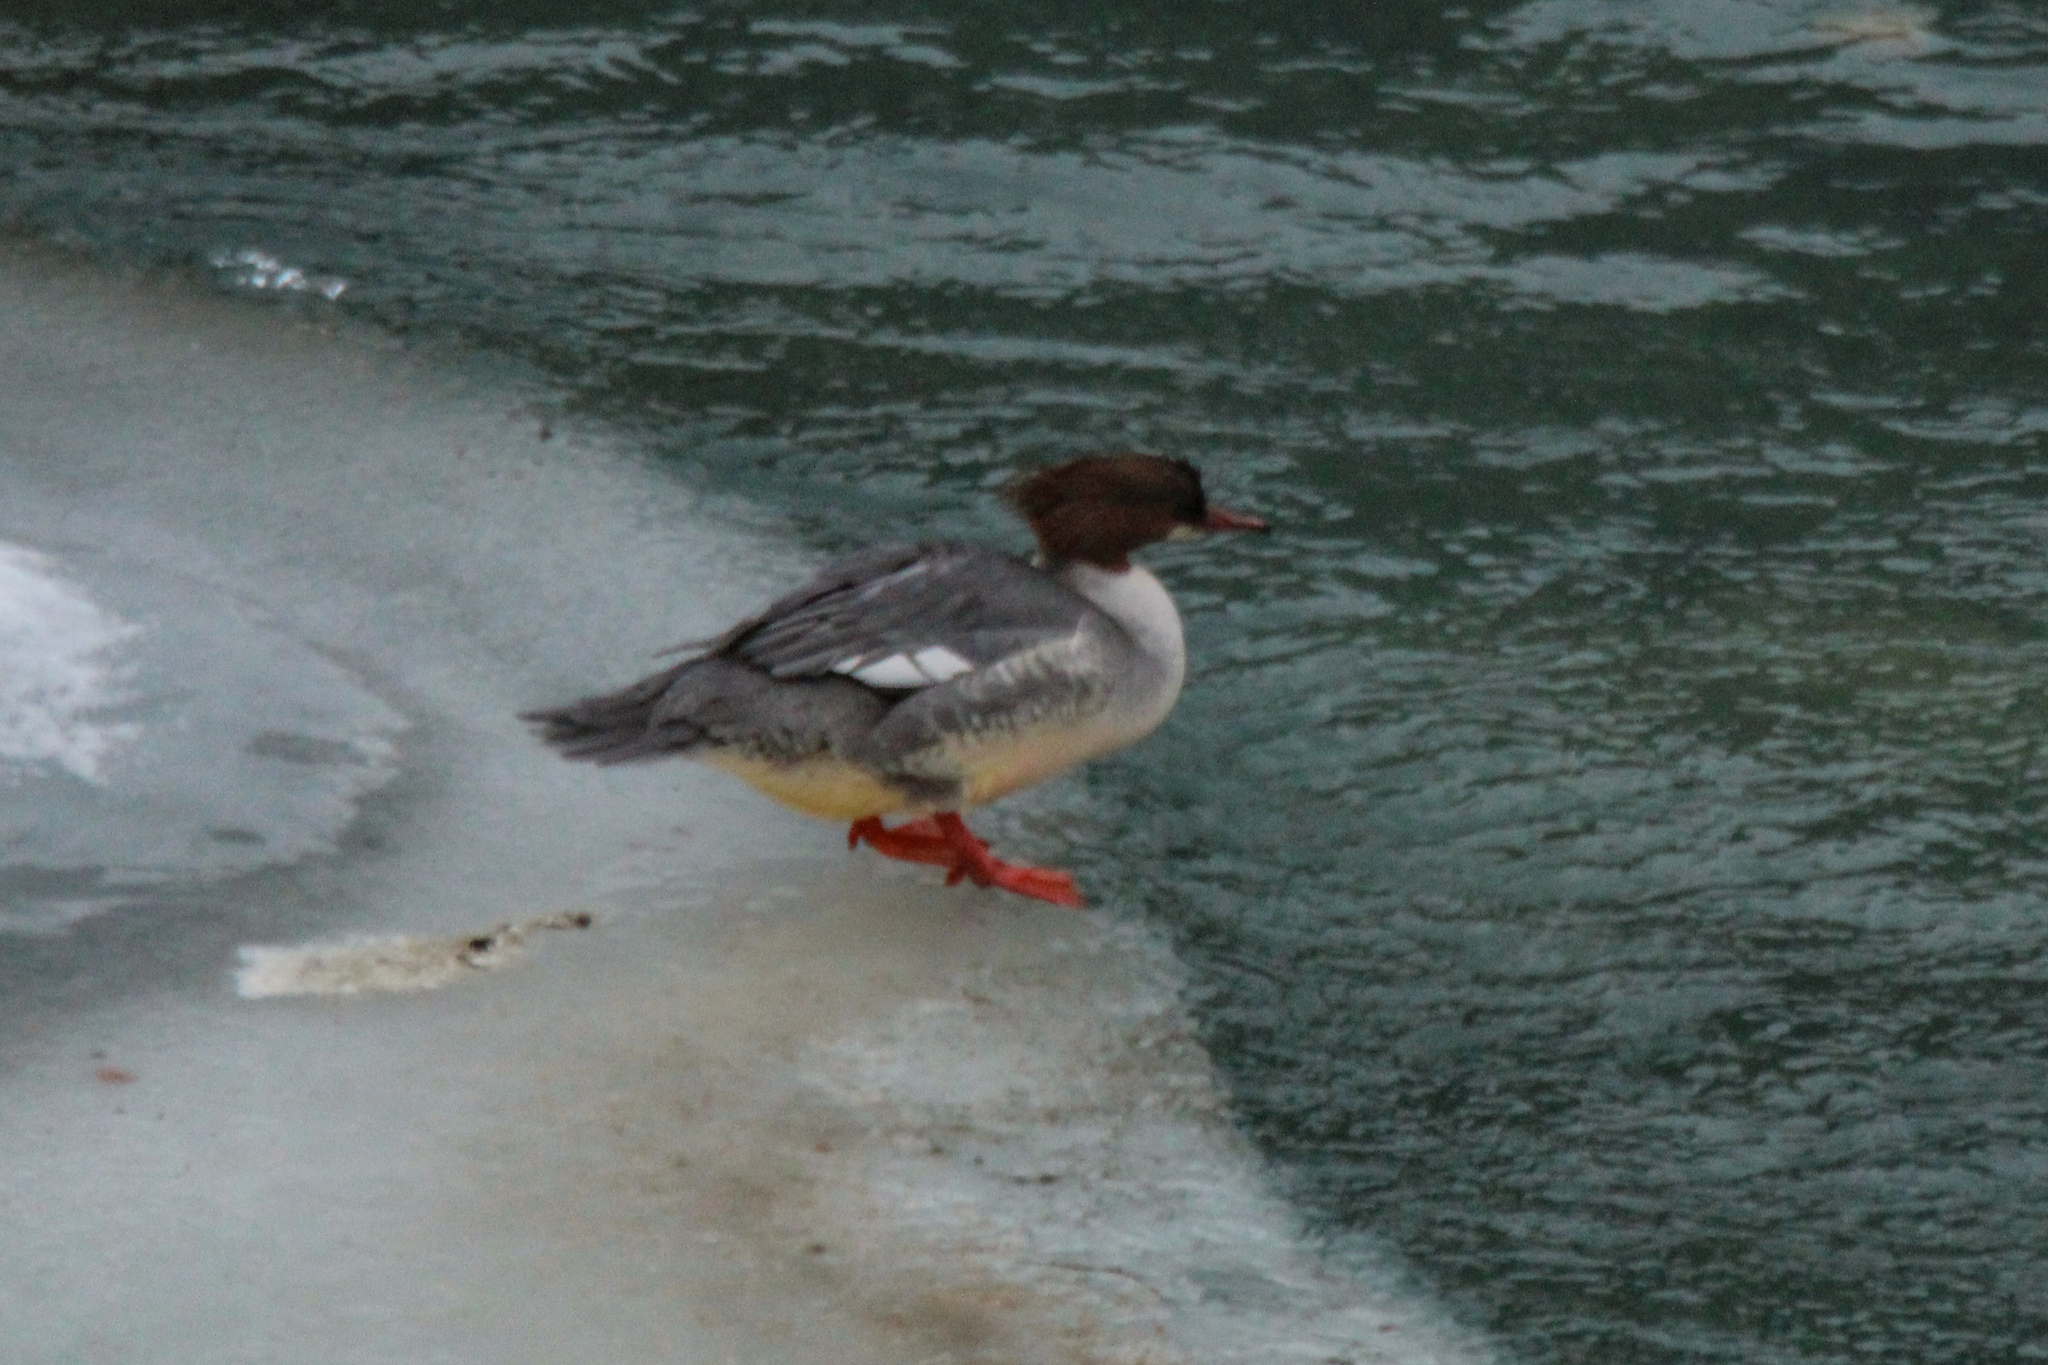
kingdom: Animalia
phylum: Chordata
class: Aves
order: Anseriformes
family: Anatidae
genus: Mergus
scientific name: Mergus merganser
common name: Common merganser
